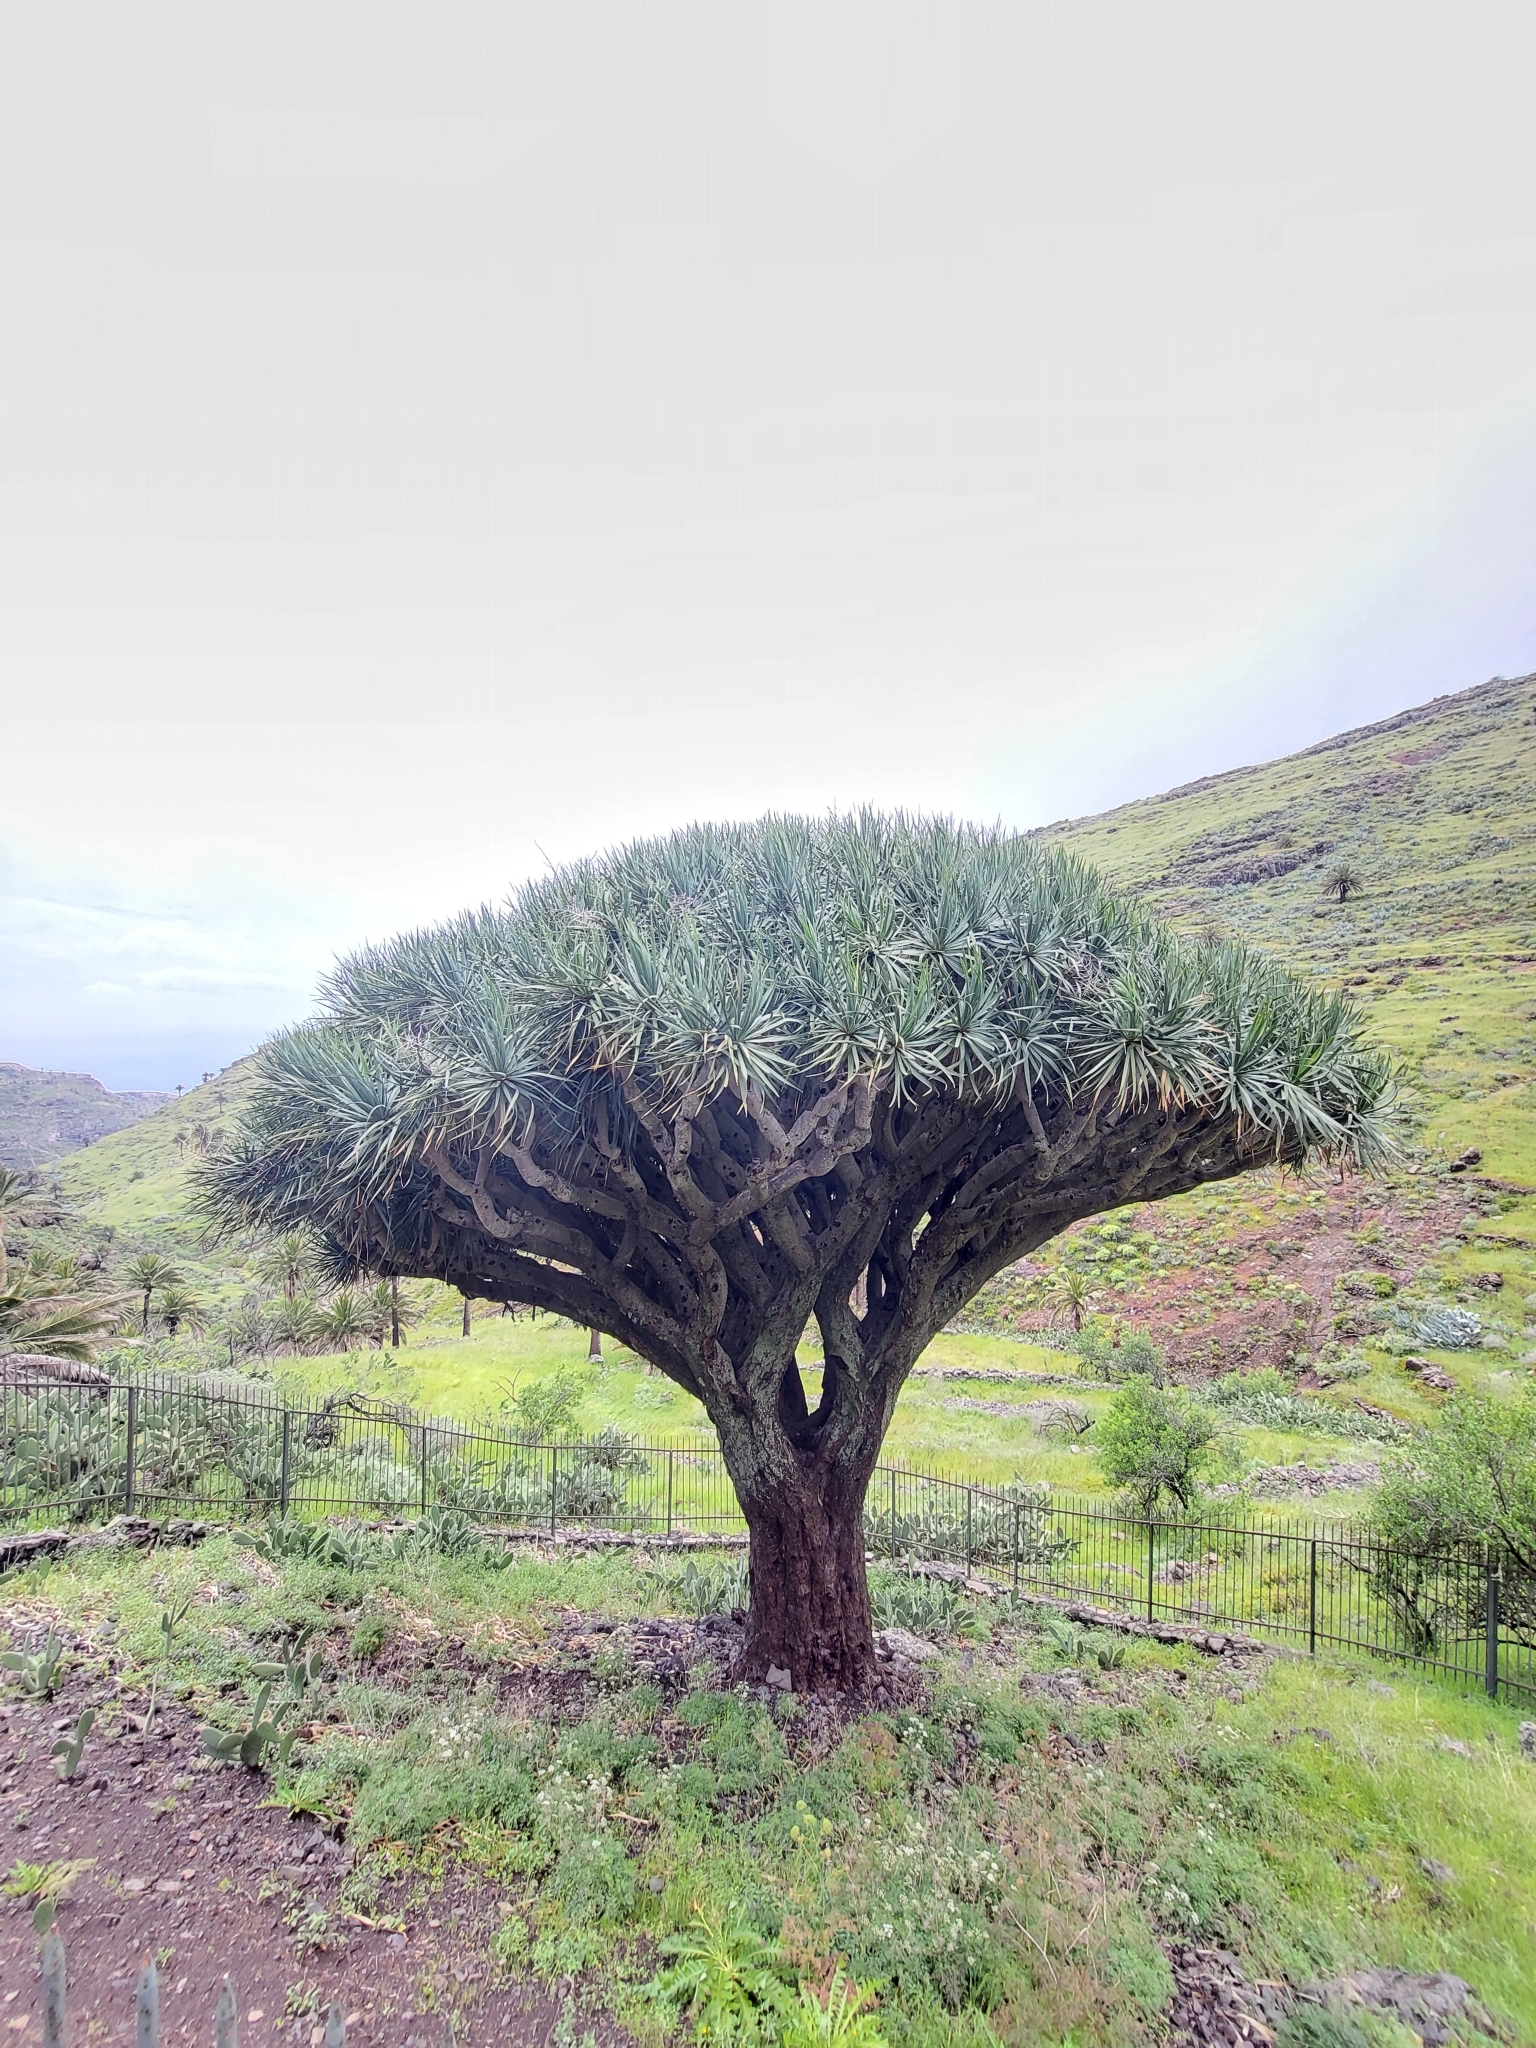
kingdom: Plantae
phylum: Tracheophyta
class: Liliopsida
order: Asparagales
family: Asparagaceae
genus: Dracaena
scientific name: Dracaena draco
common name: Canary island dragon tree
